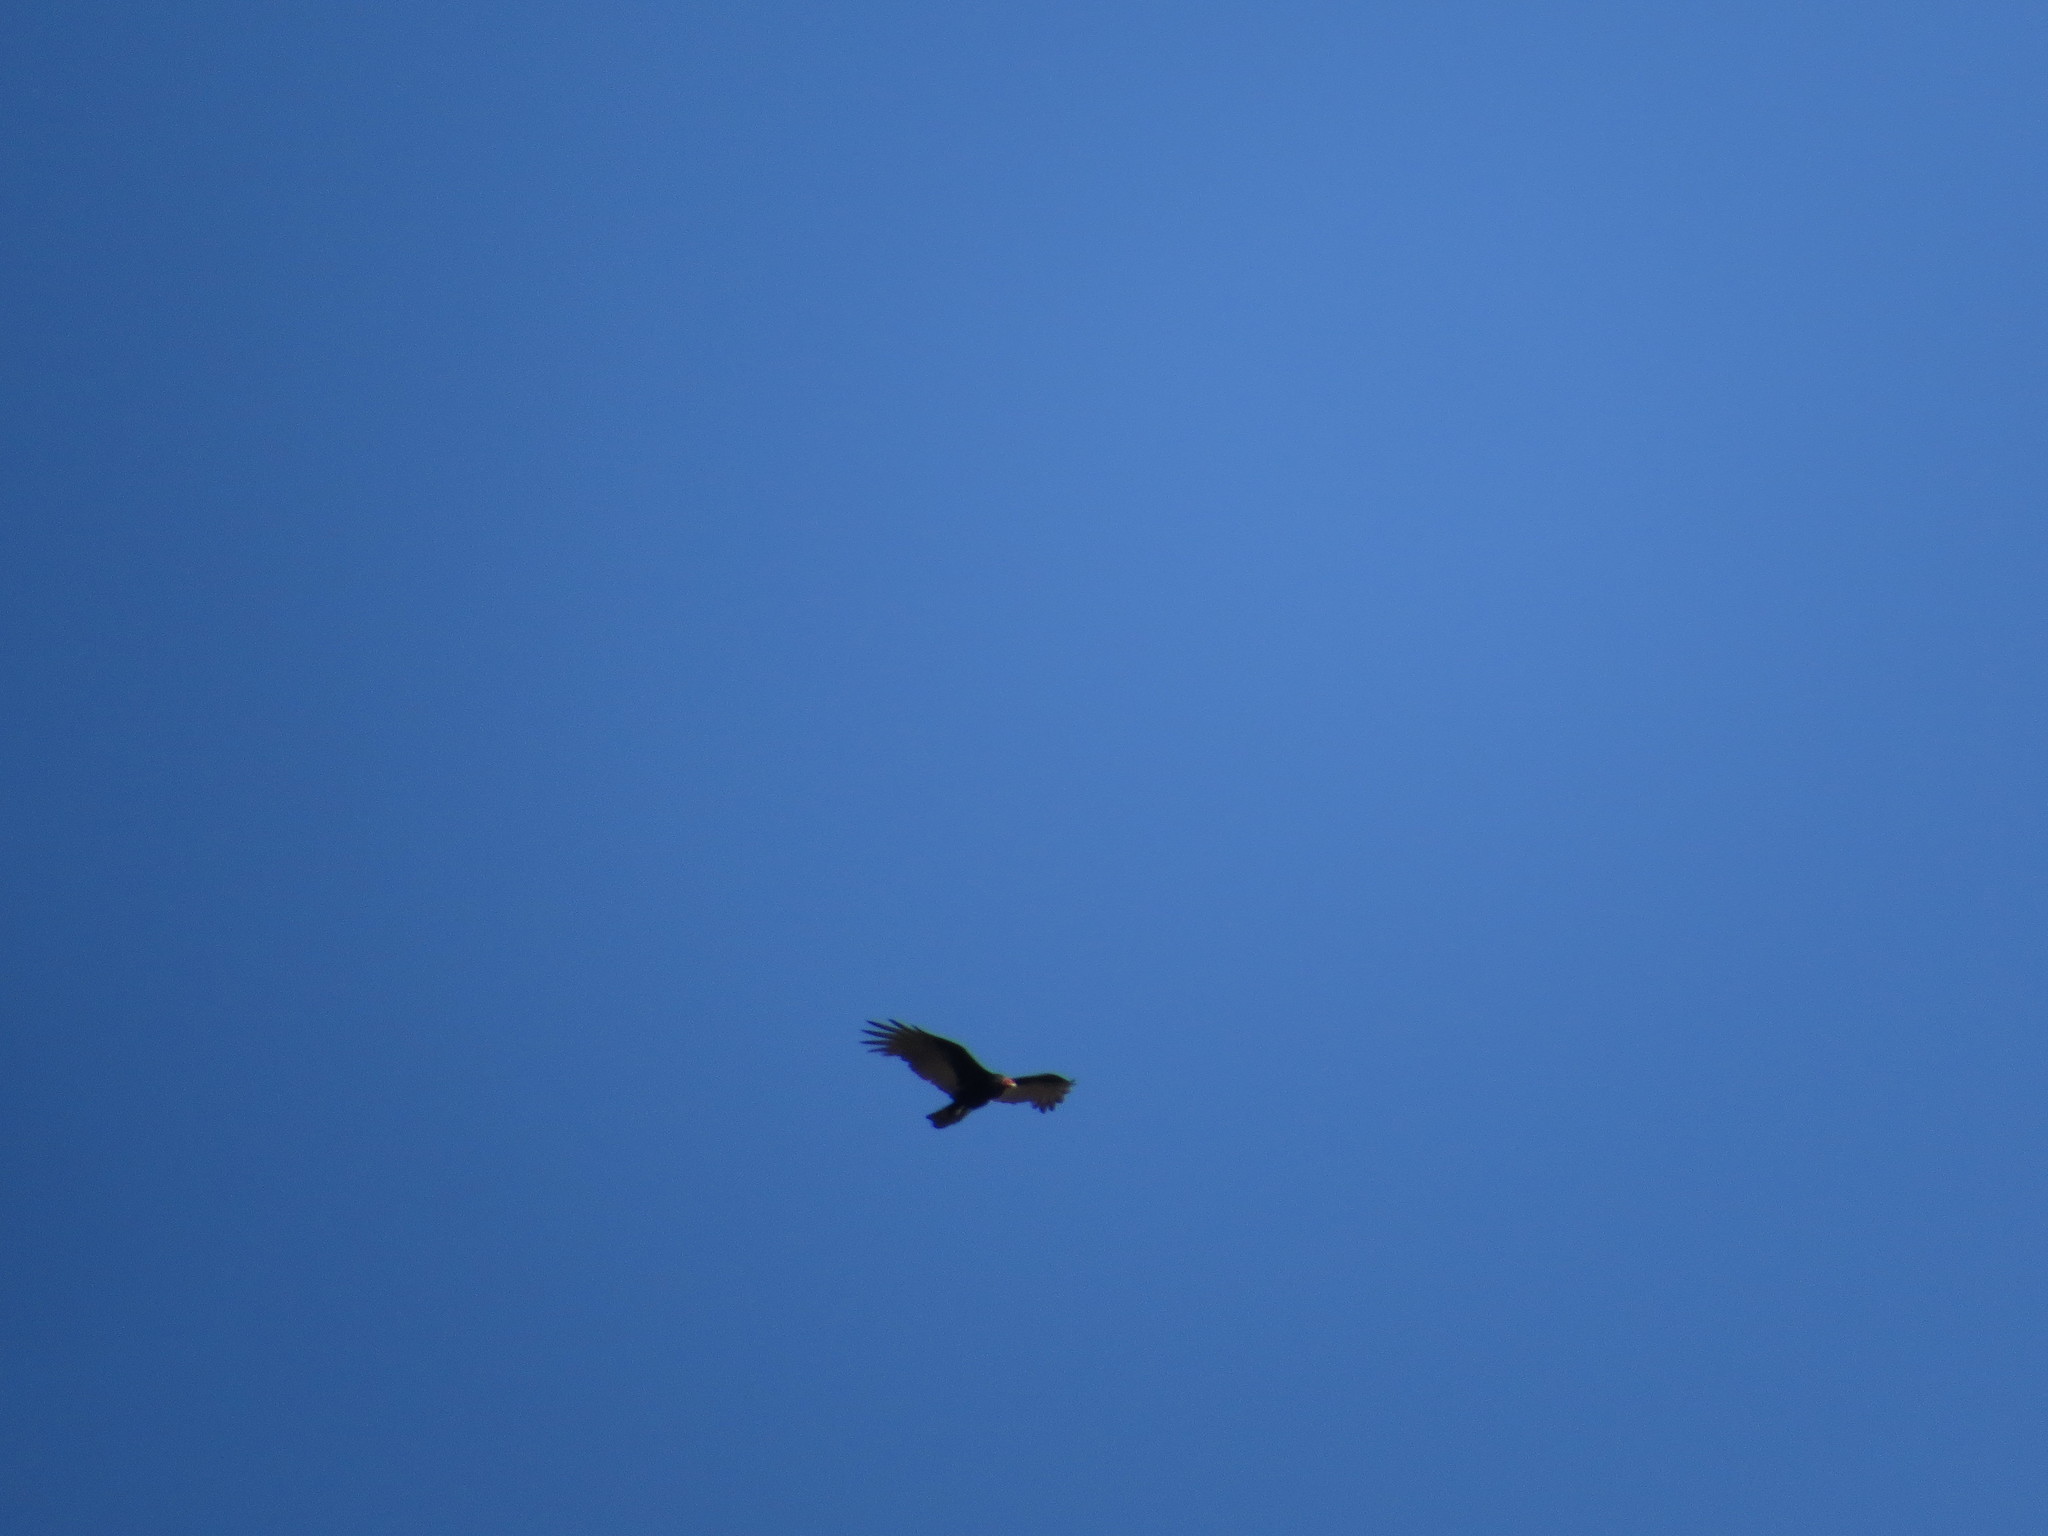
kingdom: Animalia
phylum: Chordata
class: Aves
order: Accipitriformes
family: Cathartidae
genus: Cathartes
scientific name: Cathartes aura
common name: Turkey vulture
